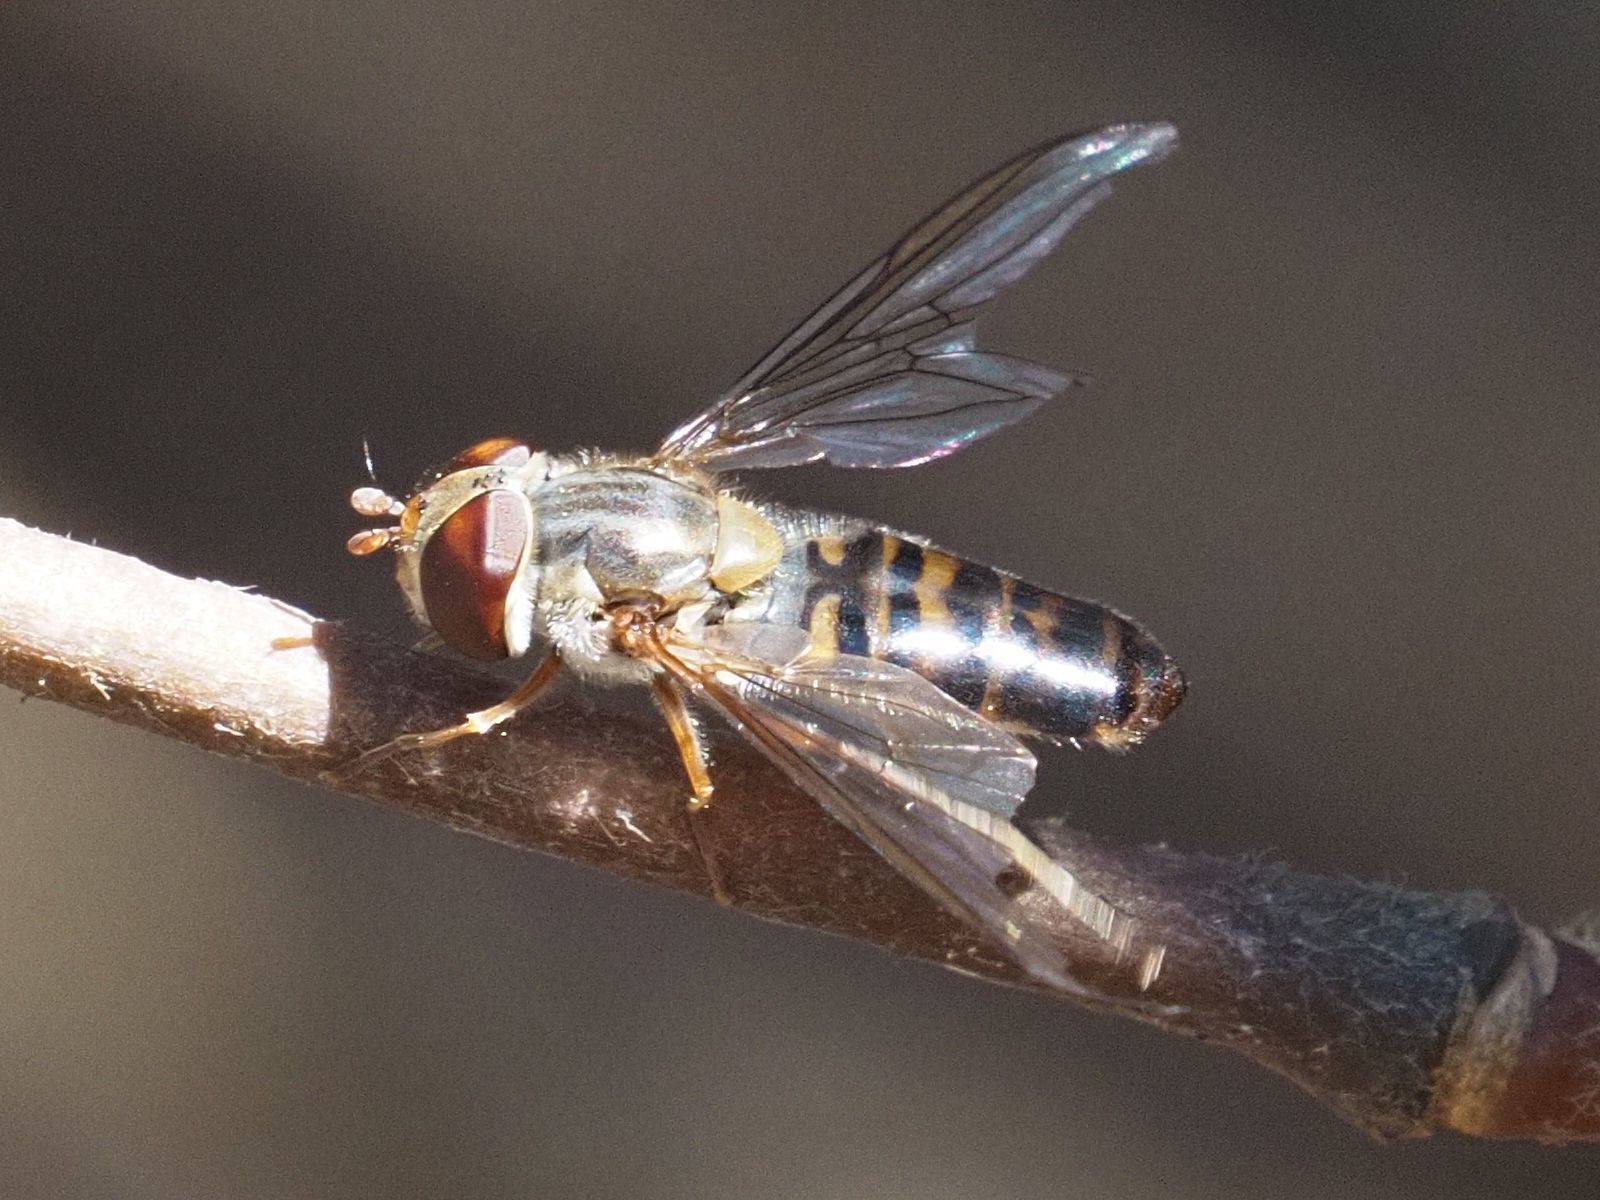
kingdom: Animalia
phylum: Arthropoda
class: Insecta
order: Diptera
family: Syrphidae
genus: Episyrphus
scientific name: Episyrphus balteatus
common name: Marmalade hoverfly
